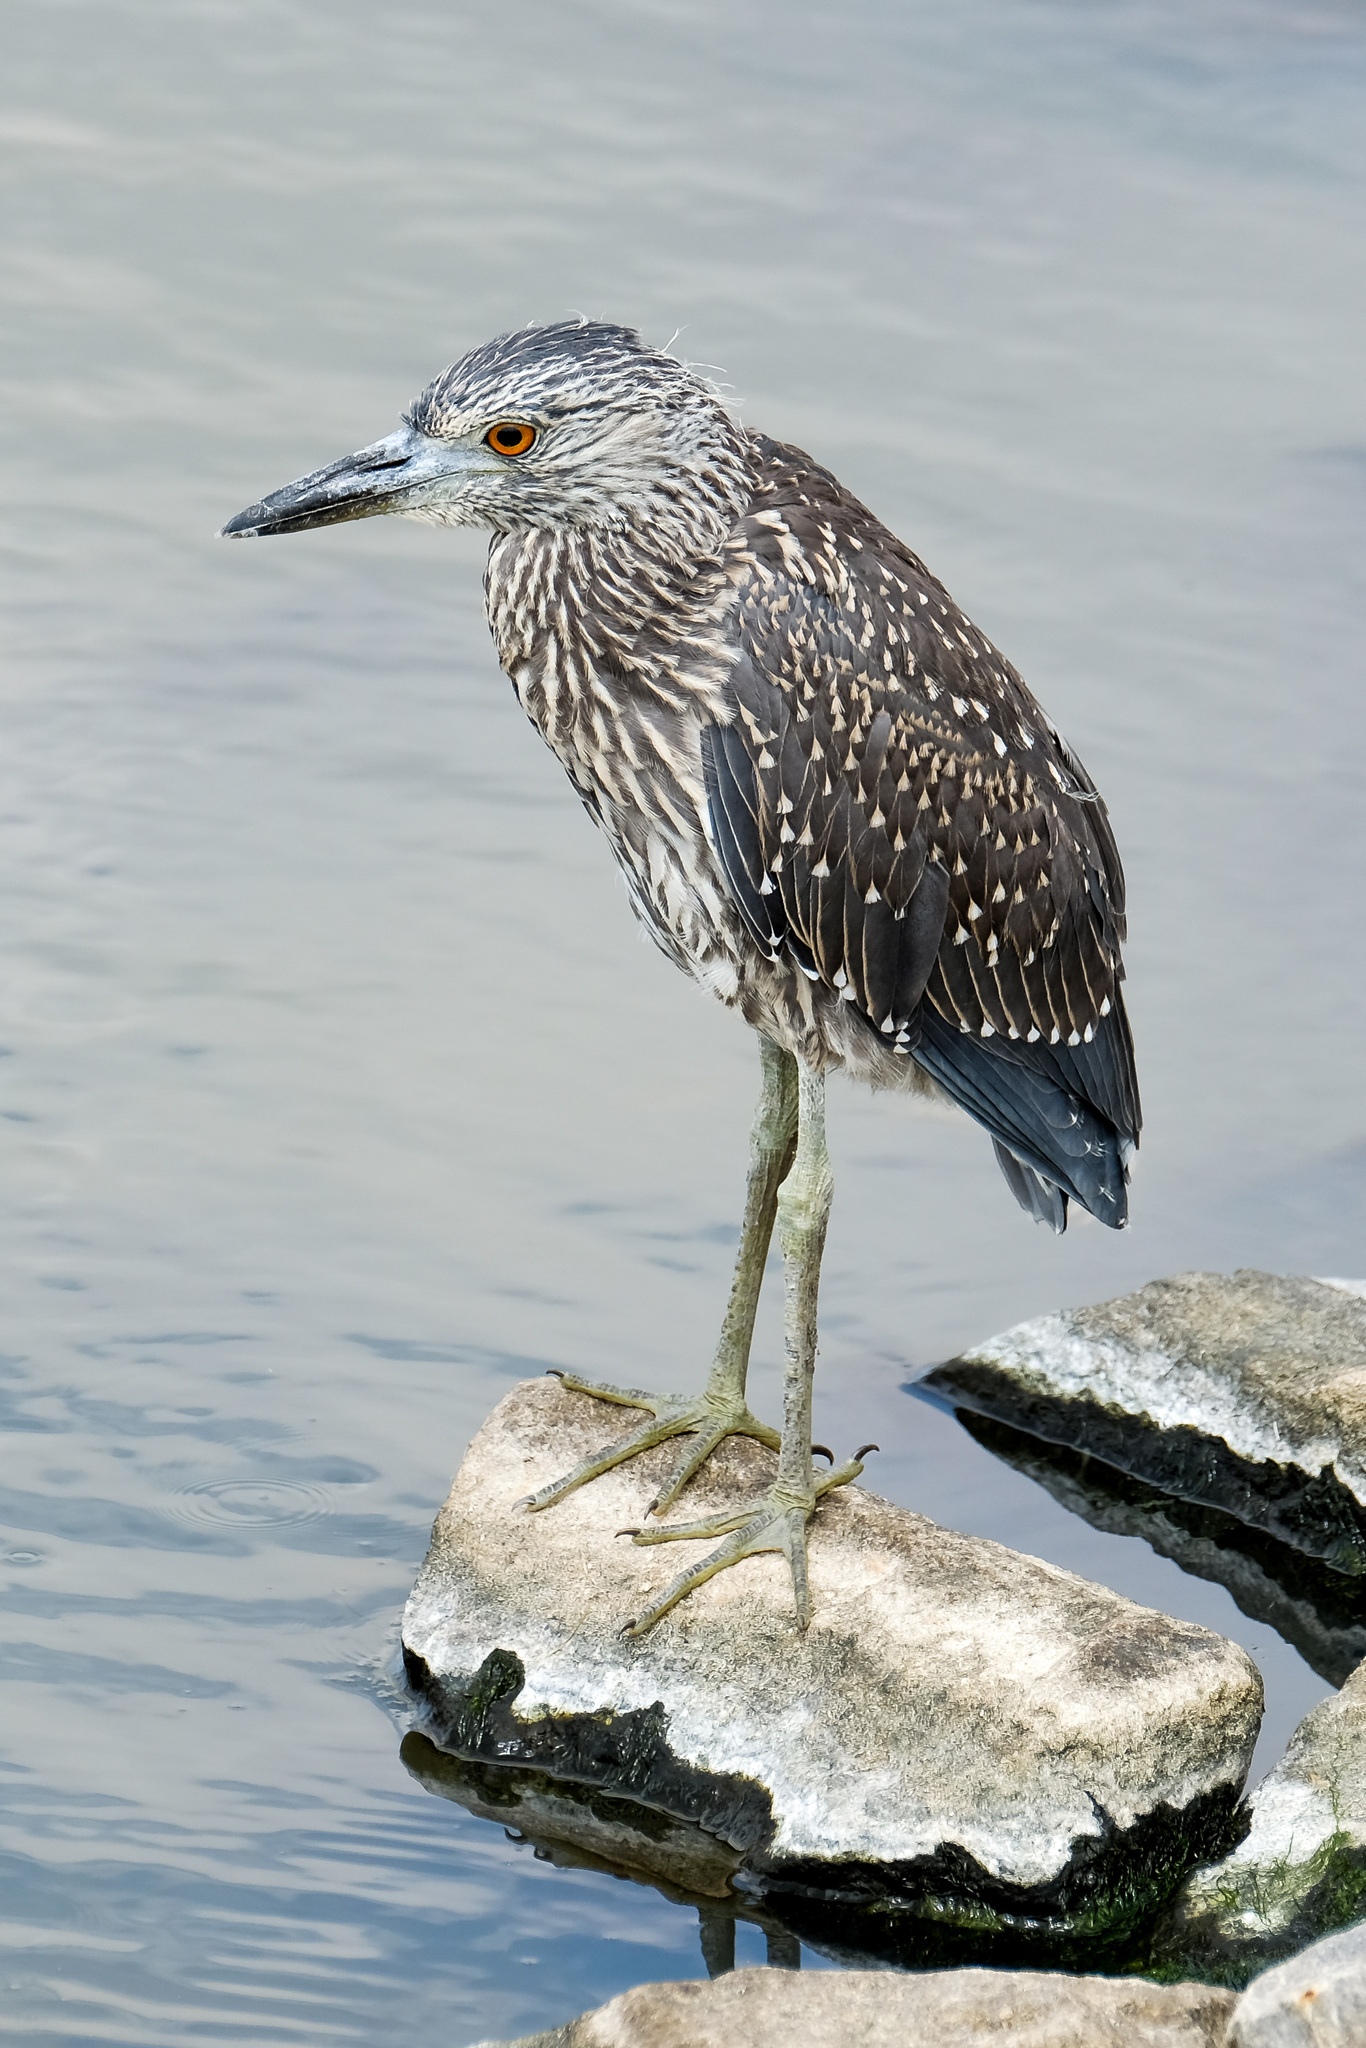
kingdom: Animalia
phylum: Chordata
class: Aves
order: Pelecaniformes
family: Ardeidae
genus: Nyctanassa
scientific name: Nyctanassa violacea
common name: Yellow-crowned night heron
